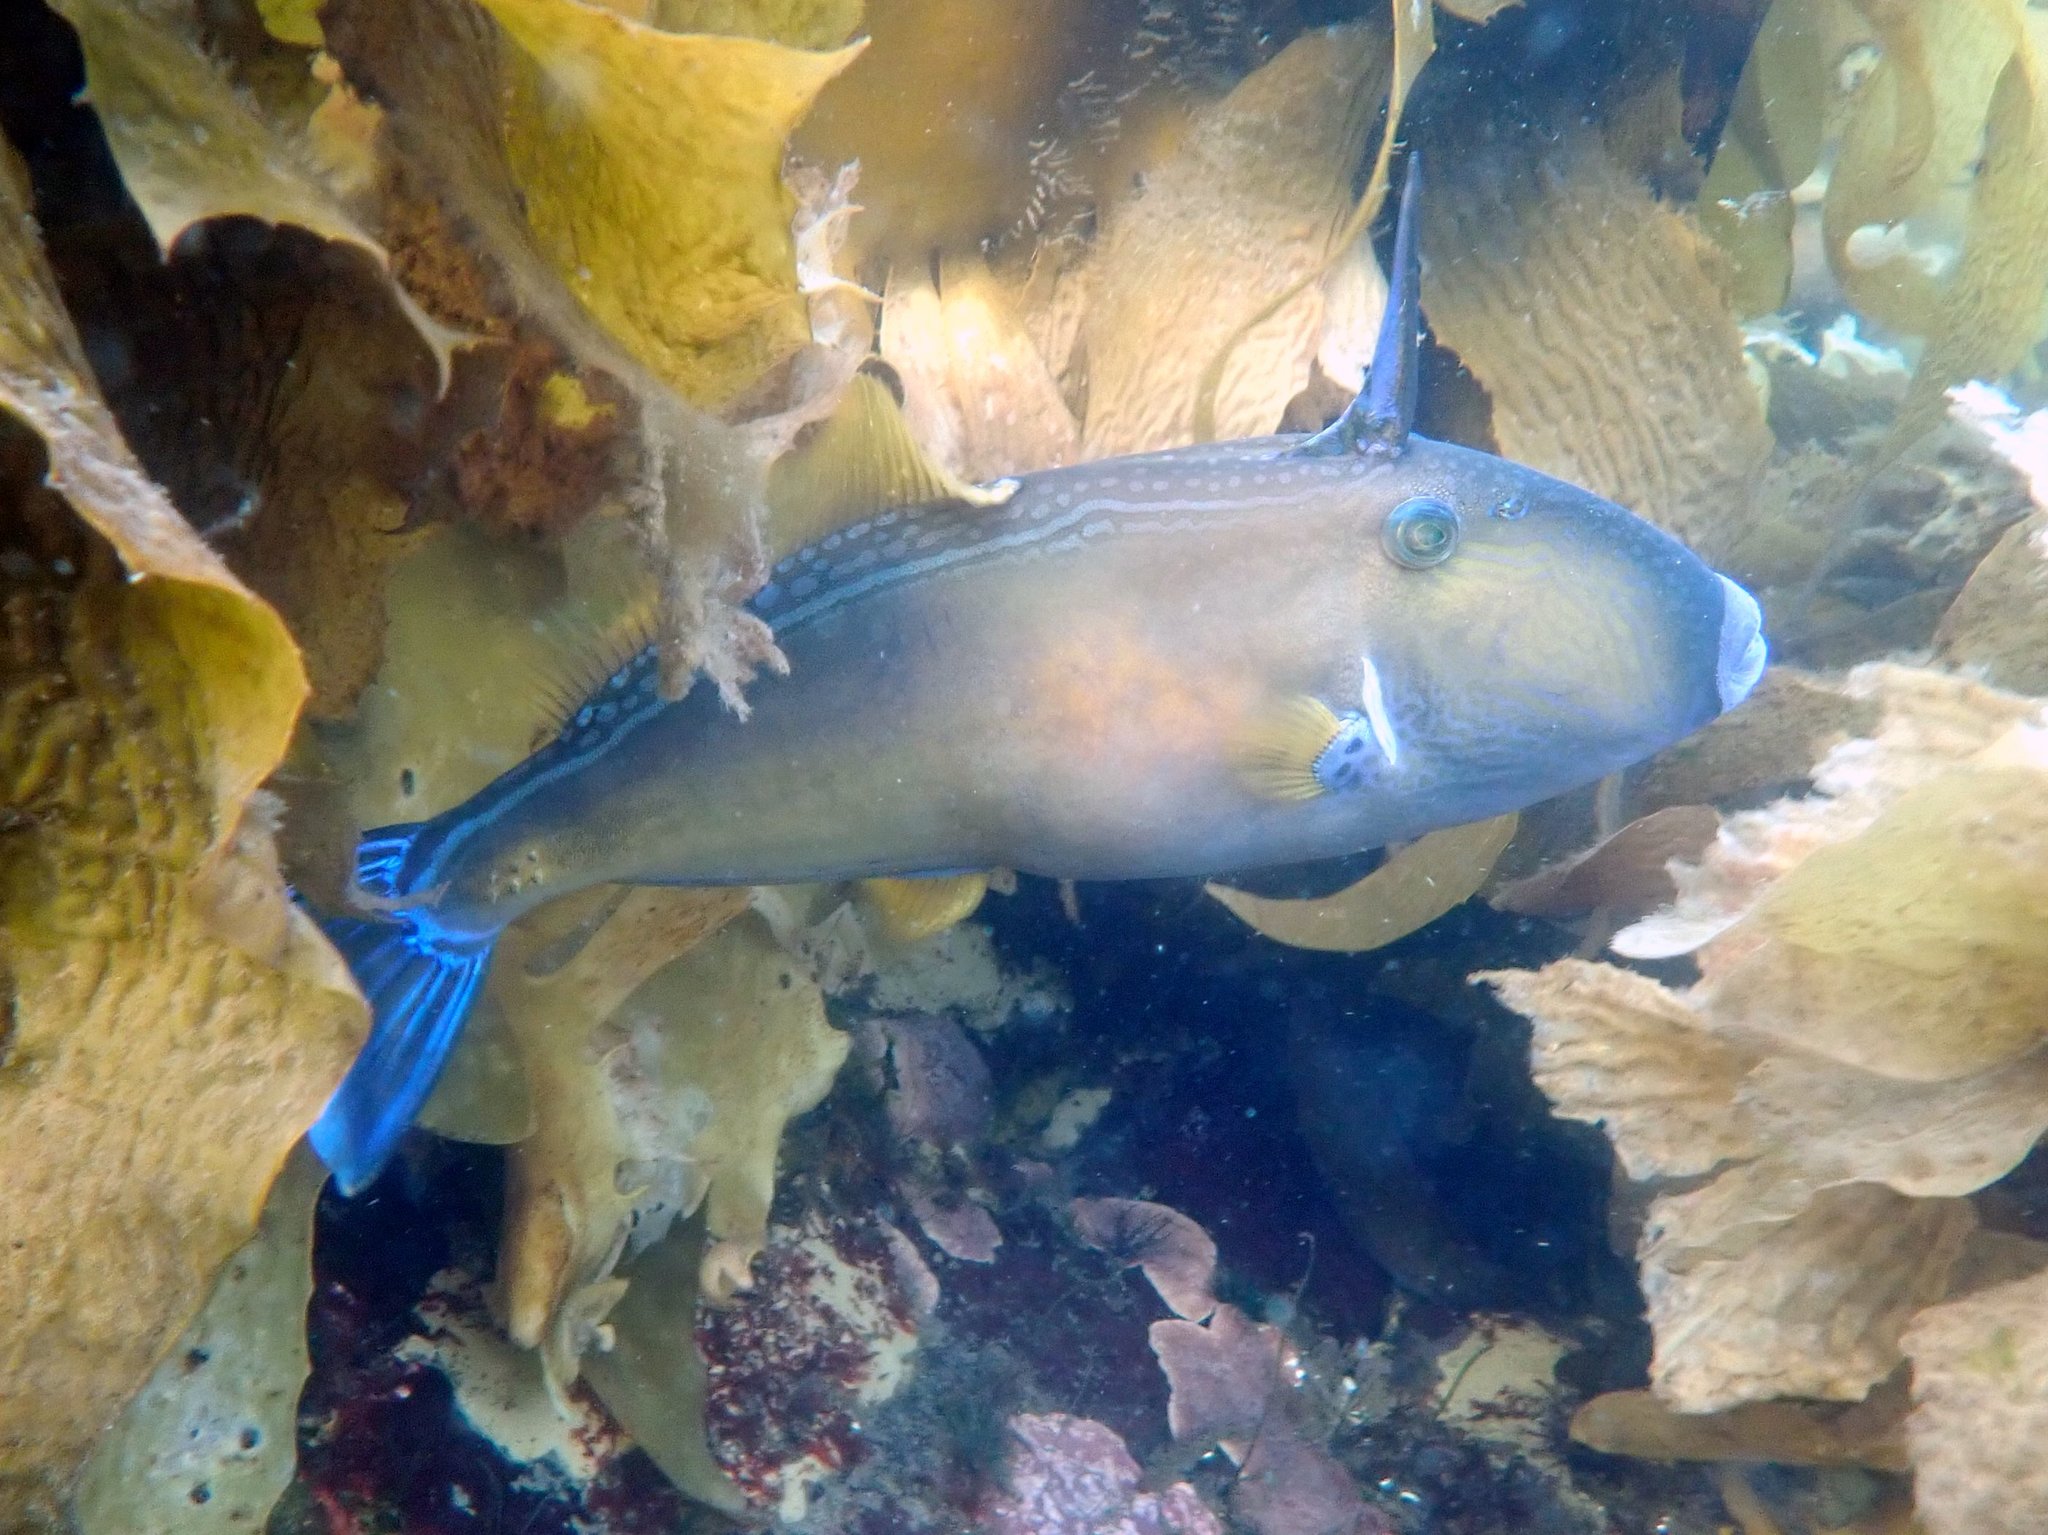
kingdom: Animalia
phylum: Chordata
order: Tetraodontiformes
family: Monacanthidae
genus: Meuschenia
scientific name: Meuschenia freycineti
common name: Freycinet's leatherjacket
